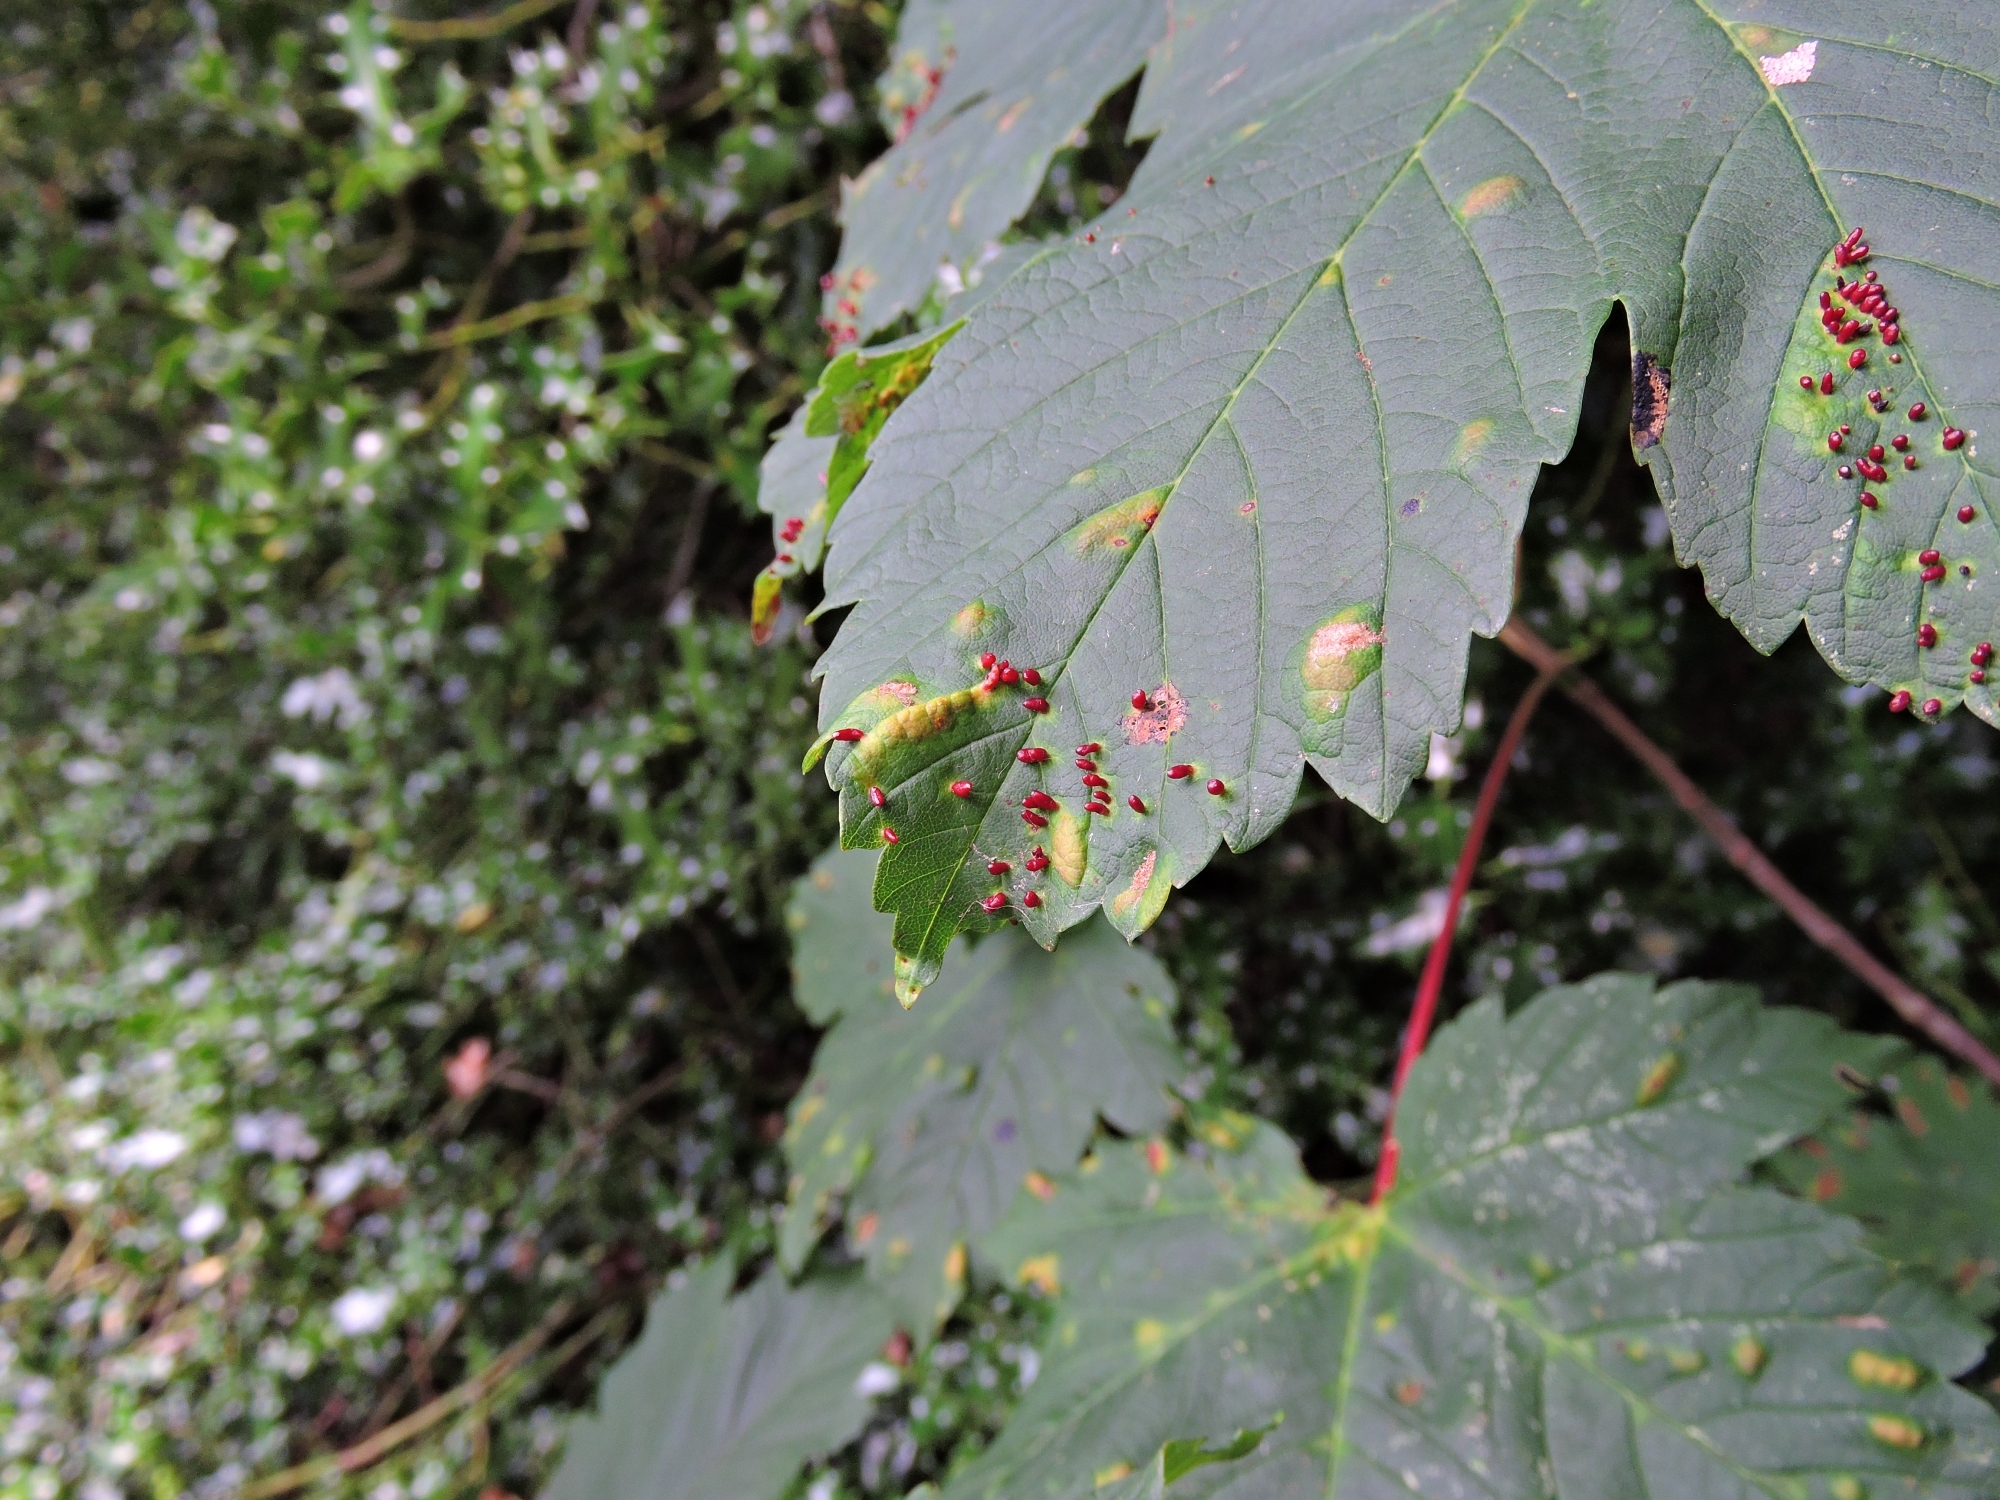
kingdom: Animalia
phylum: Arthropoda
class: Arachnida
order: Trombidiformes
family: Eriophyidae
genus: Aceria
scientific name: Aceria cephaloneus
